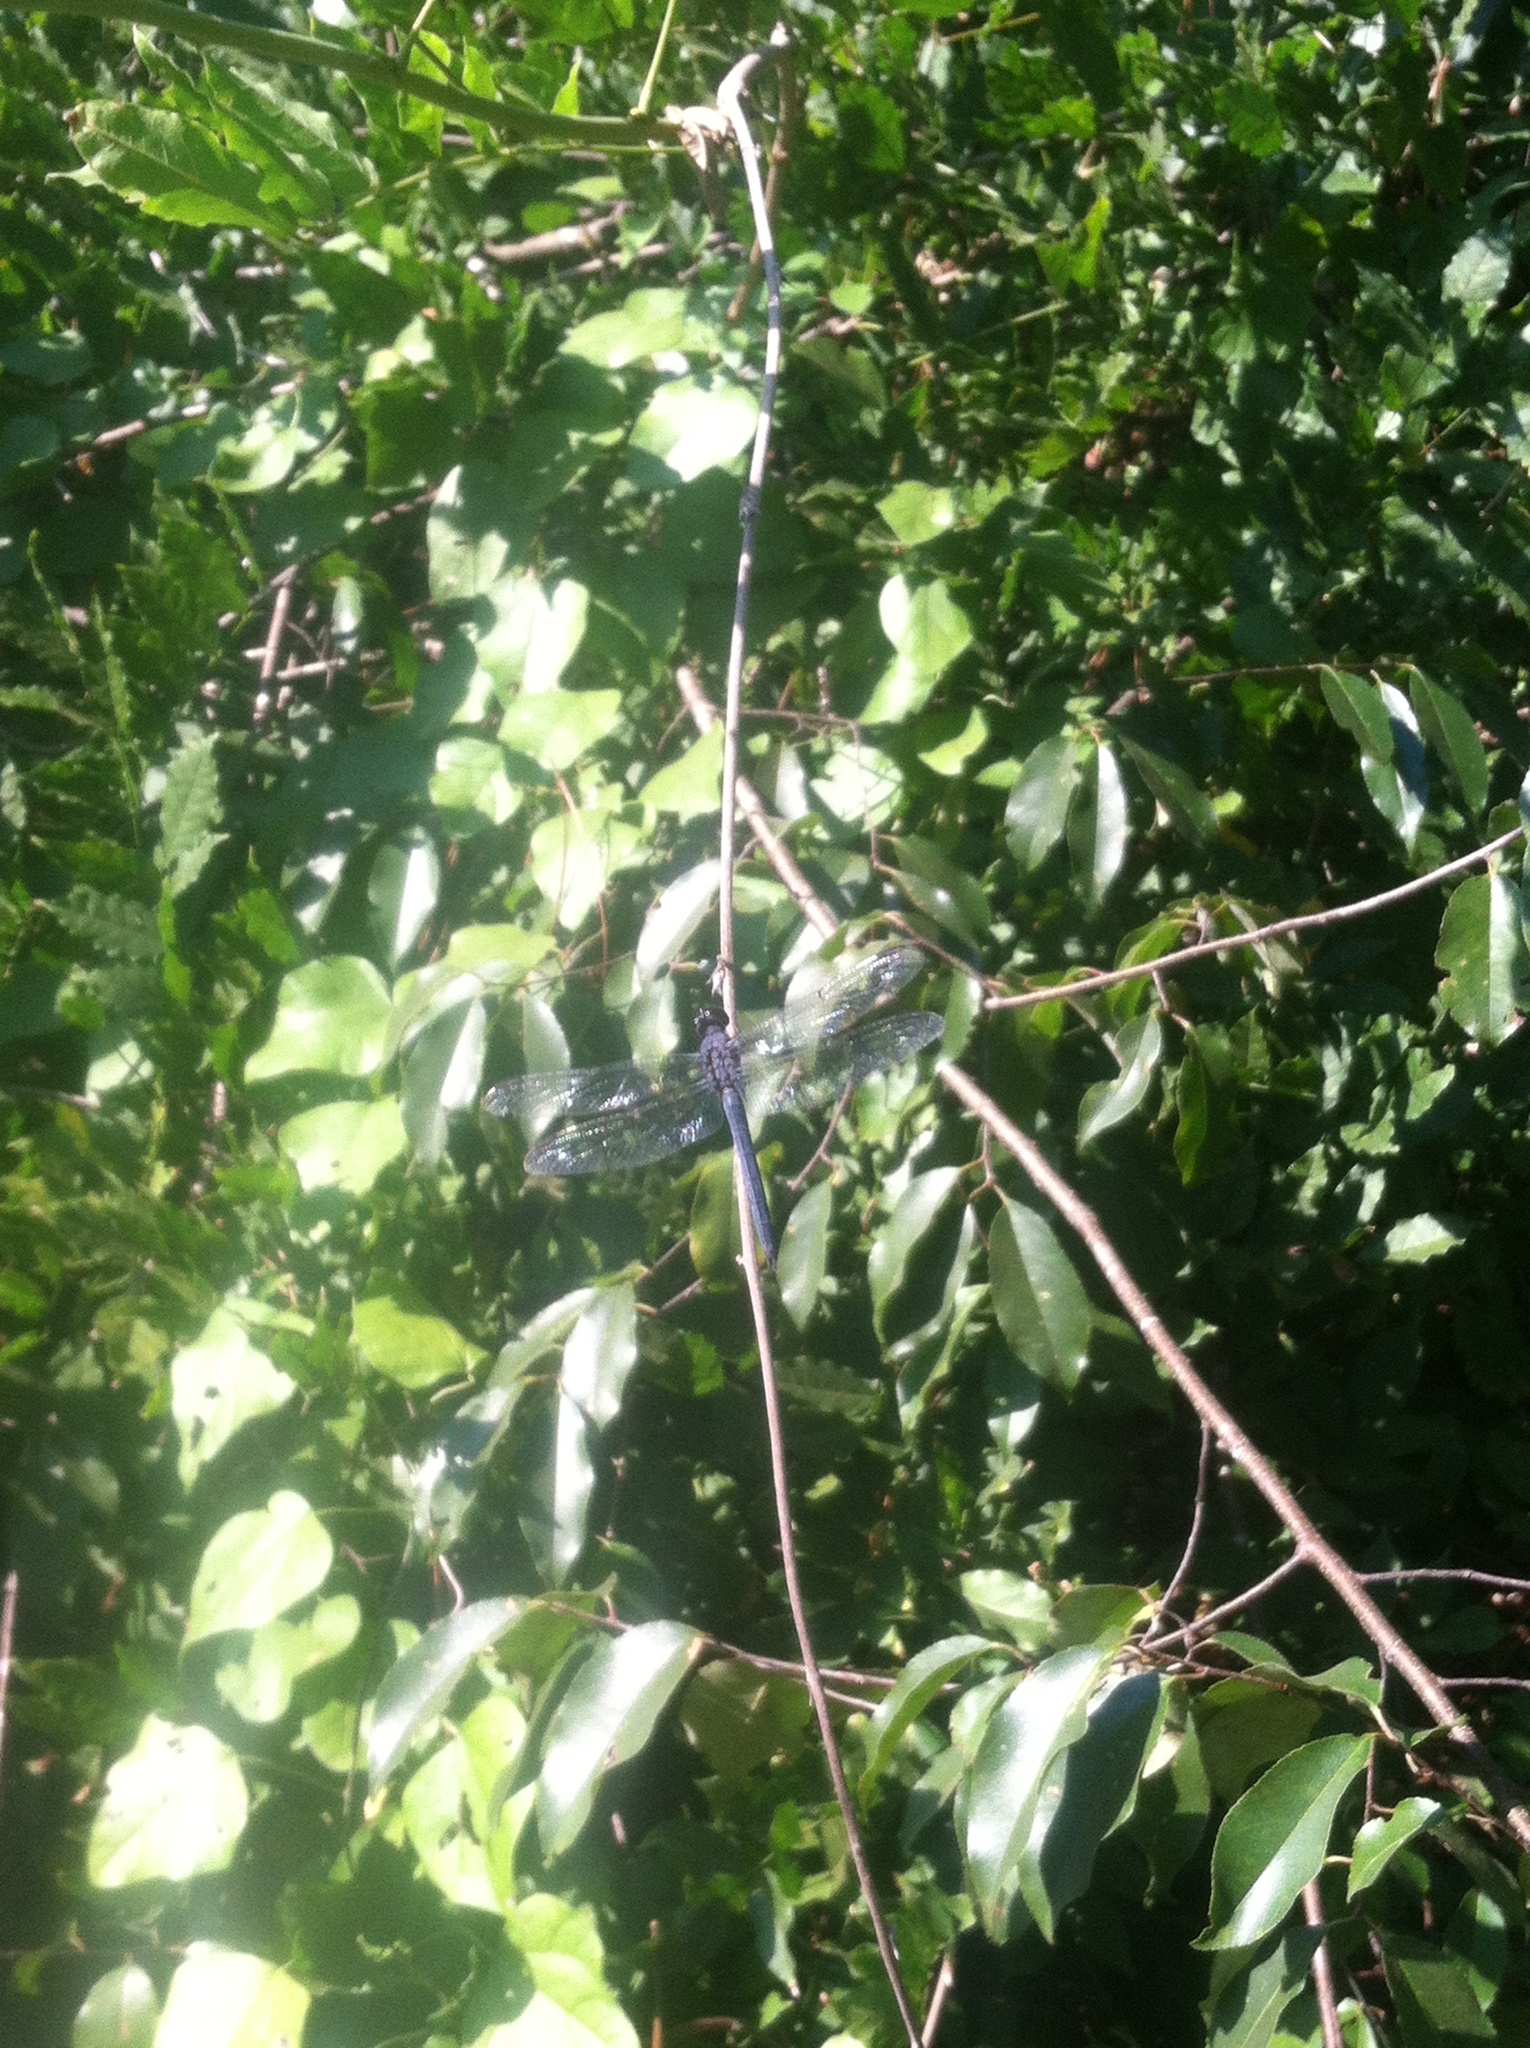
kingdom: Animalia
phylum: Arthropoda
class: Insecta
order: Odonata
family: Libellulidae
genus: Libellula
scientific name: Libellula incesta
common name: Slaty skimmer
